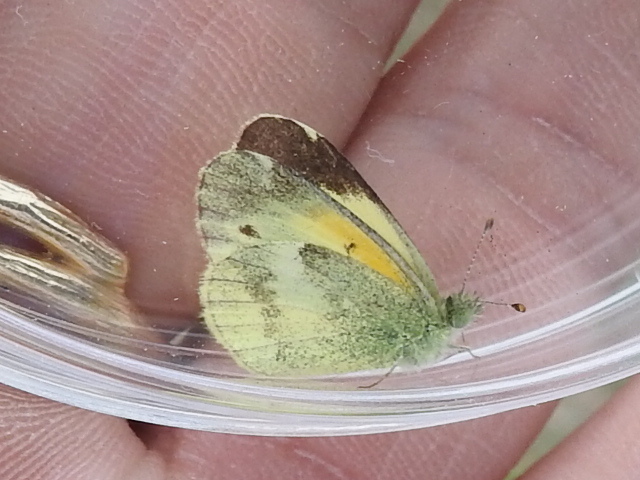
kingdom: Animalia
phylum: Arthropoda
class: Insecta
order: Lepidoptera
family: Pieridae
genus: Nathalis
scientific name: Nathalis iole
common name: Dainty sulphur
